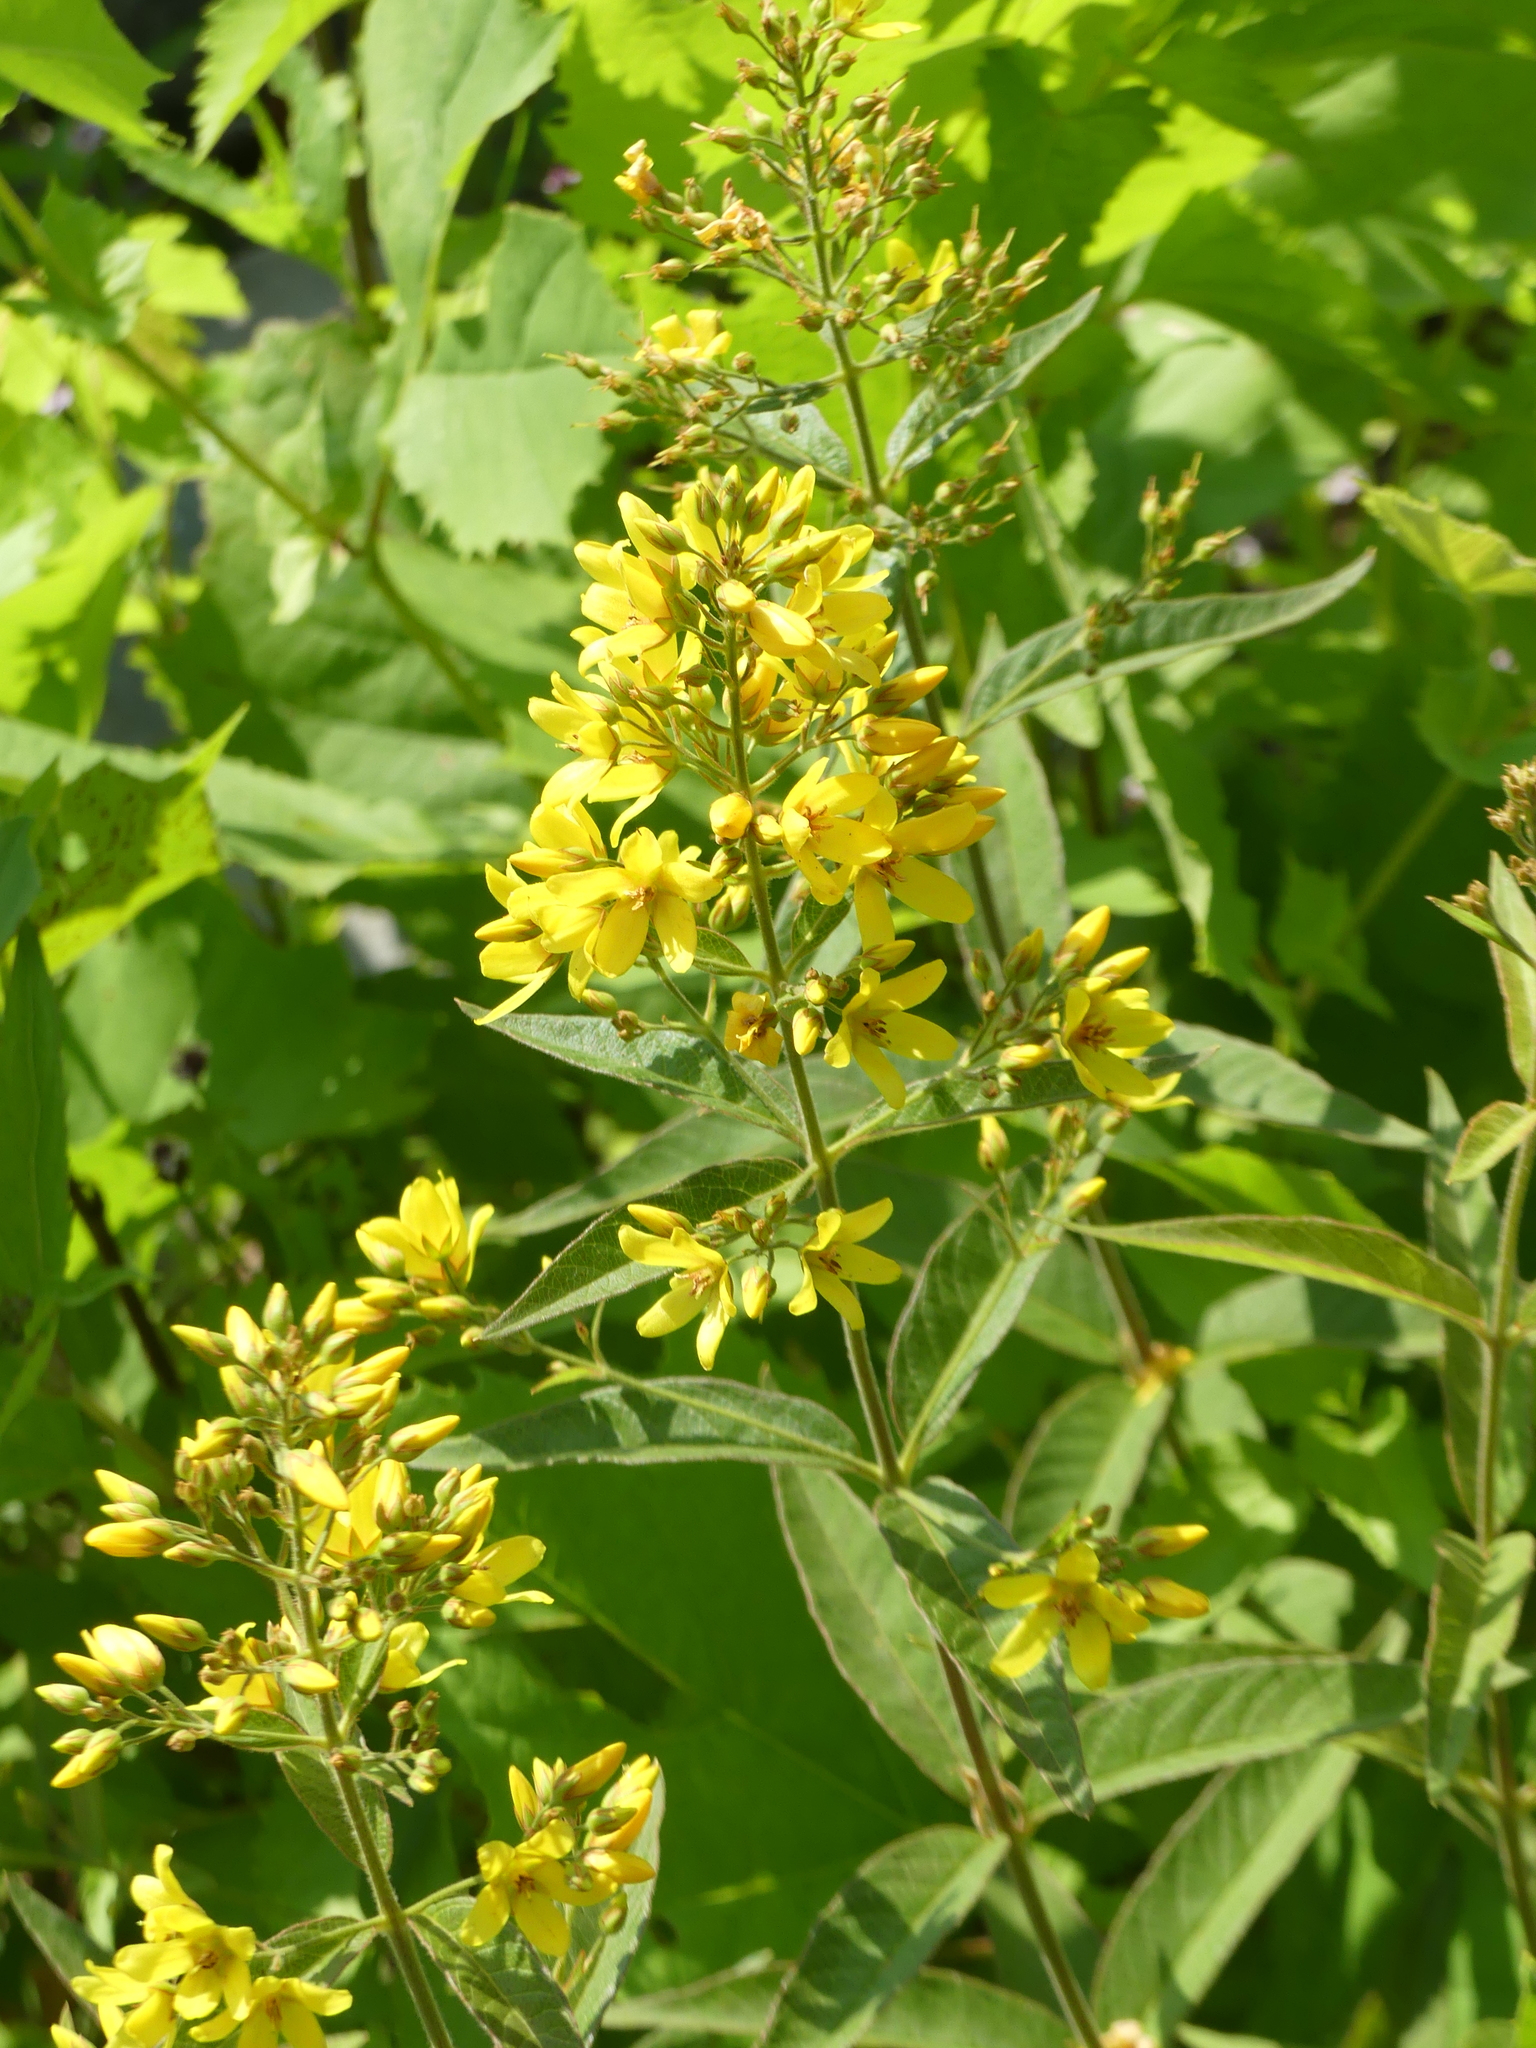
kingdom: Plantae
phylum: Tracheophyta
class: Magnoliopsida
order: Ericales
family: Primulaceae
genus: Lysimachia
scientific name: Lysimachia vulgaris
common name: Yellow loosestrife
